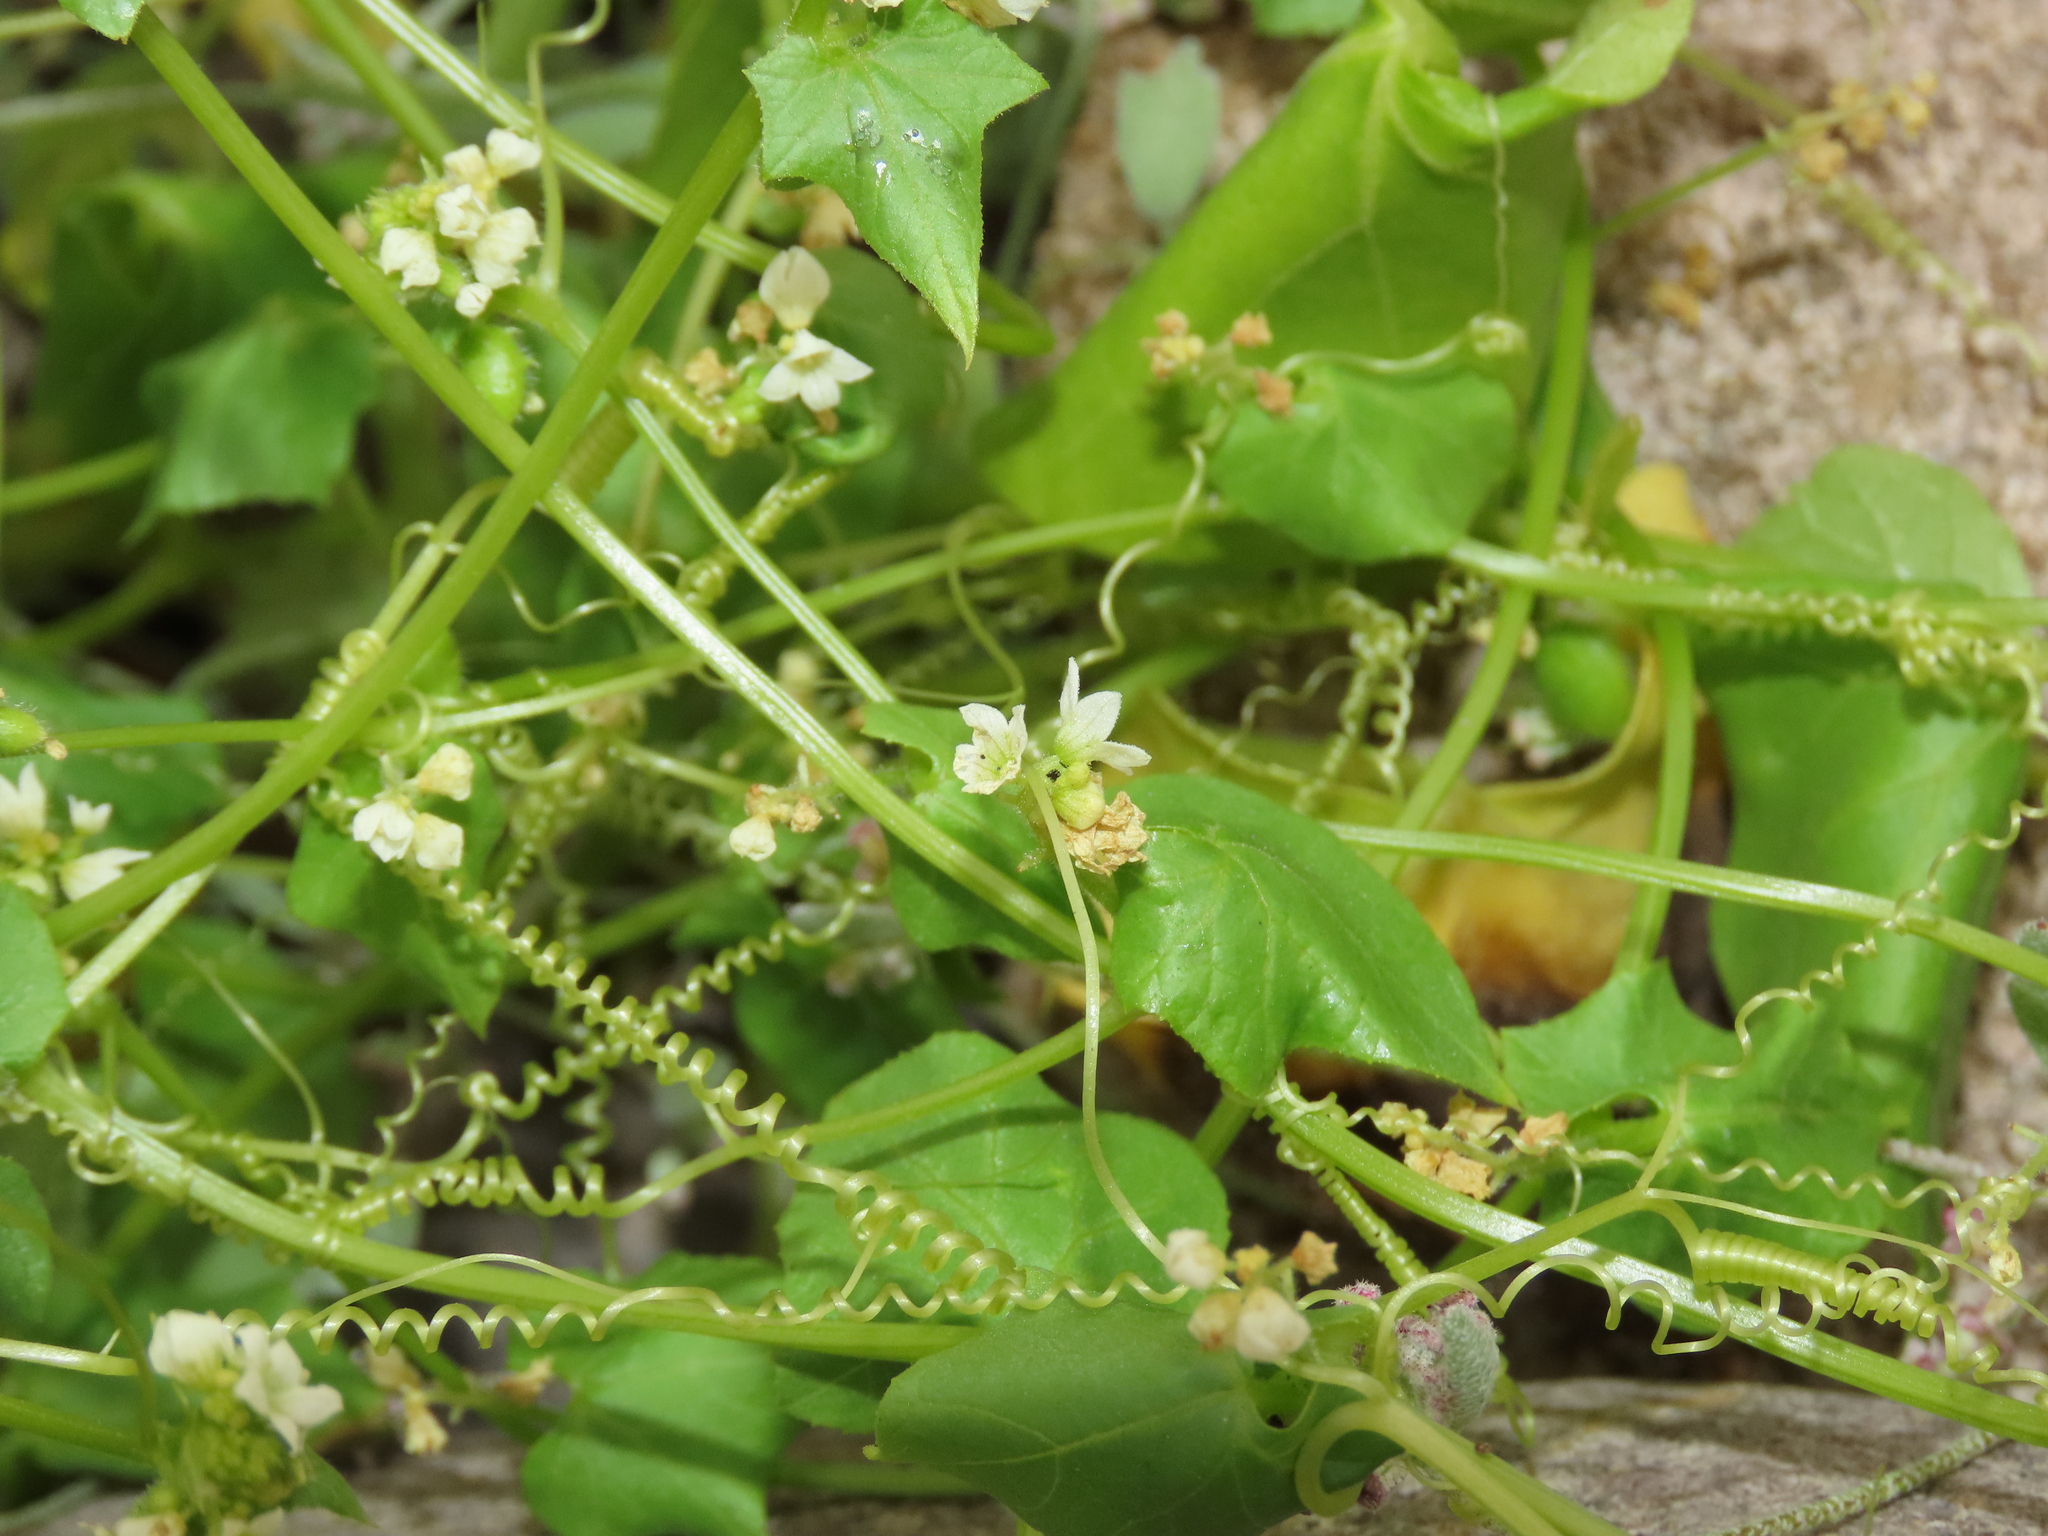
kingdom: Plantae
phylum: Tracheophyta
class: Magnoliopsida
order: Cucurbitales
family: Cucurbitaceae
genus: Sicyos
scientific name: Sicyos baderoa
